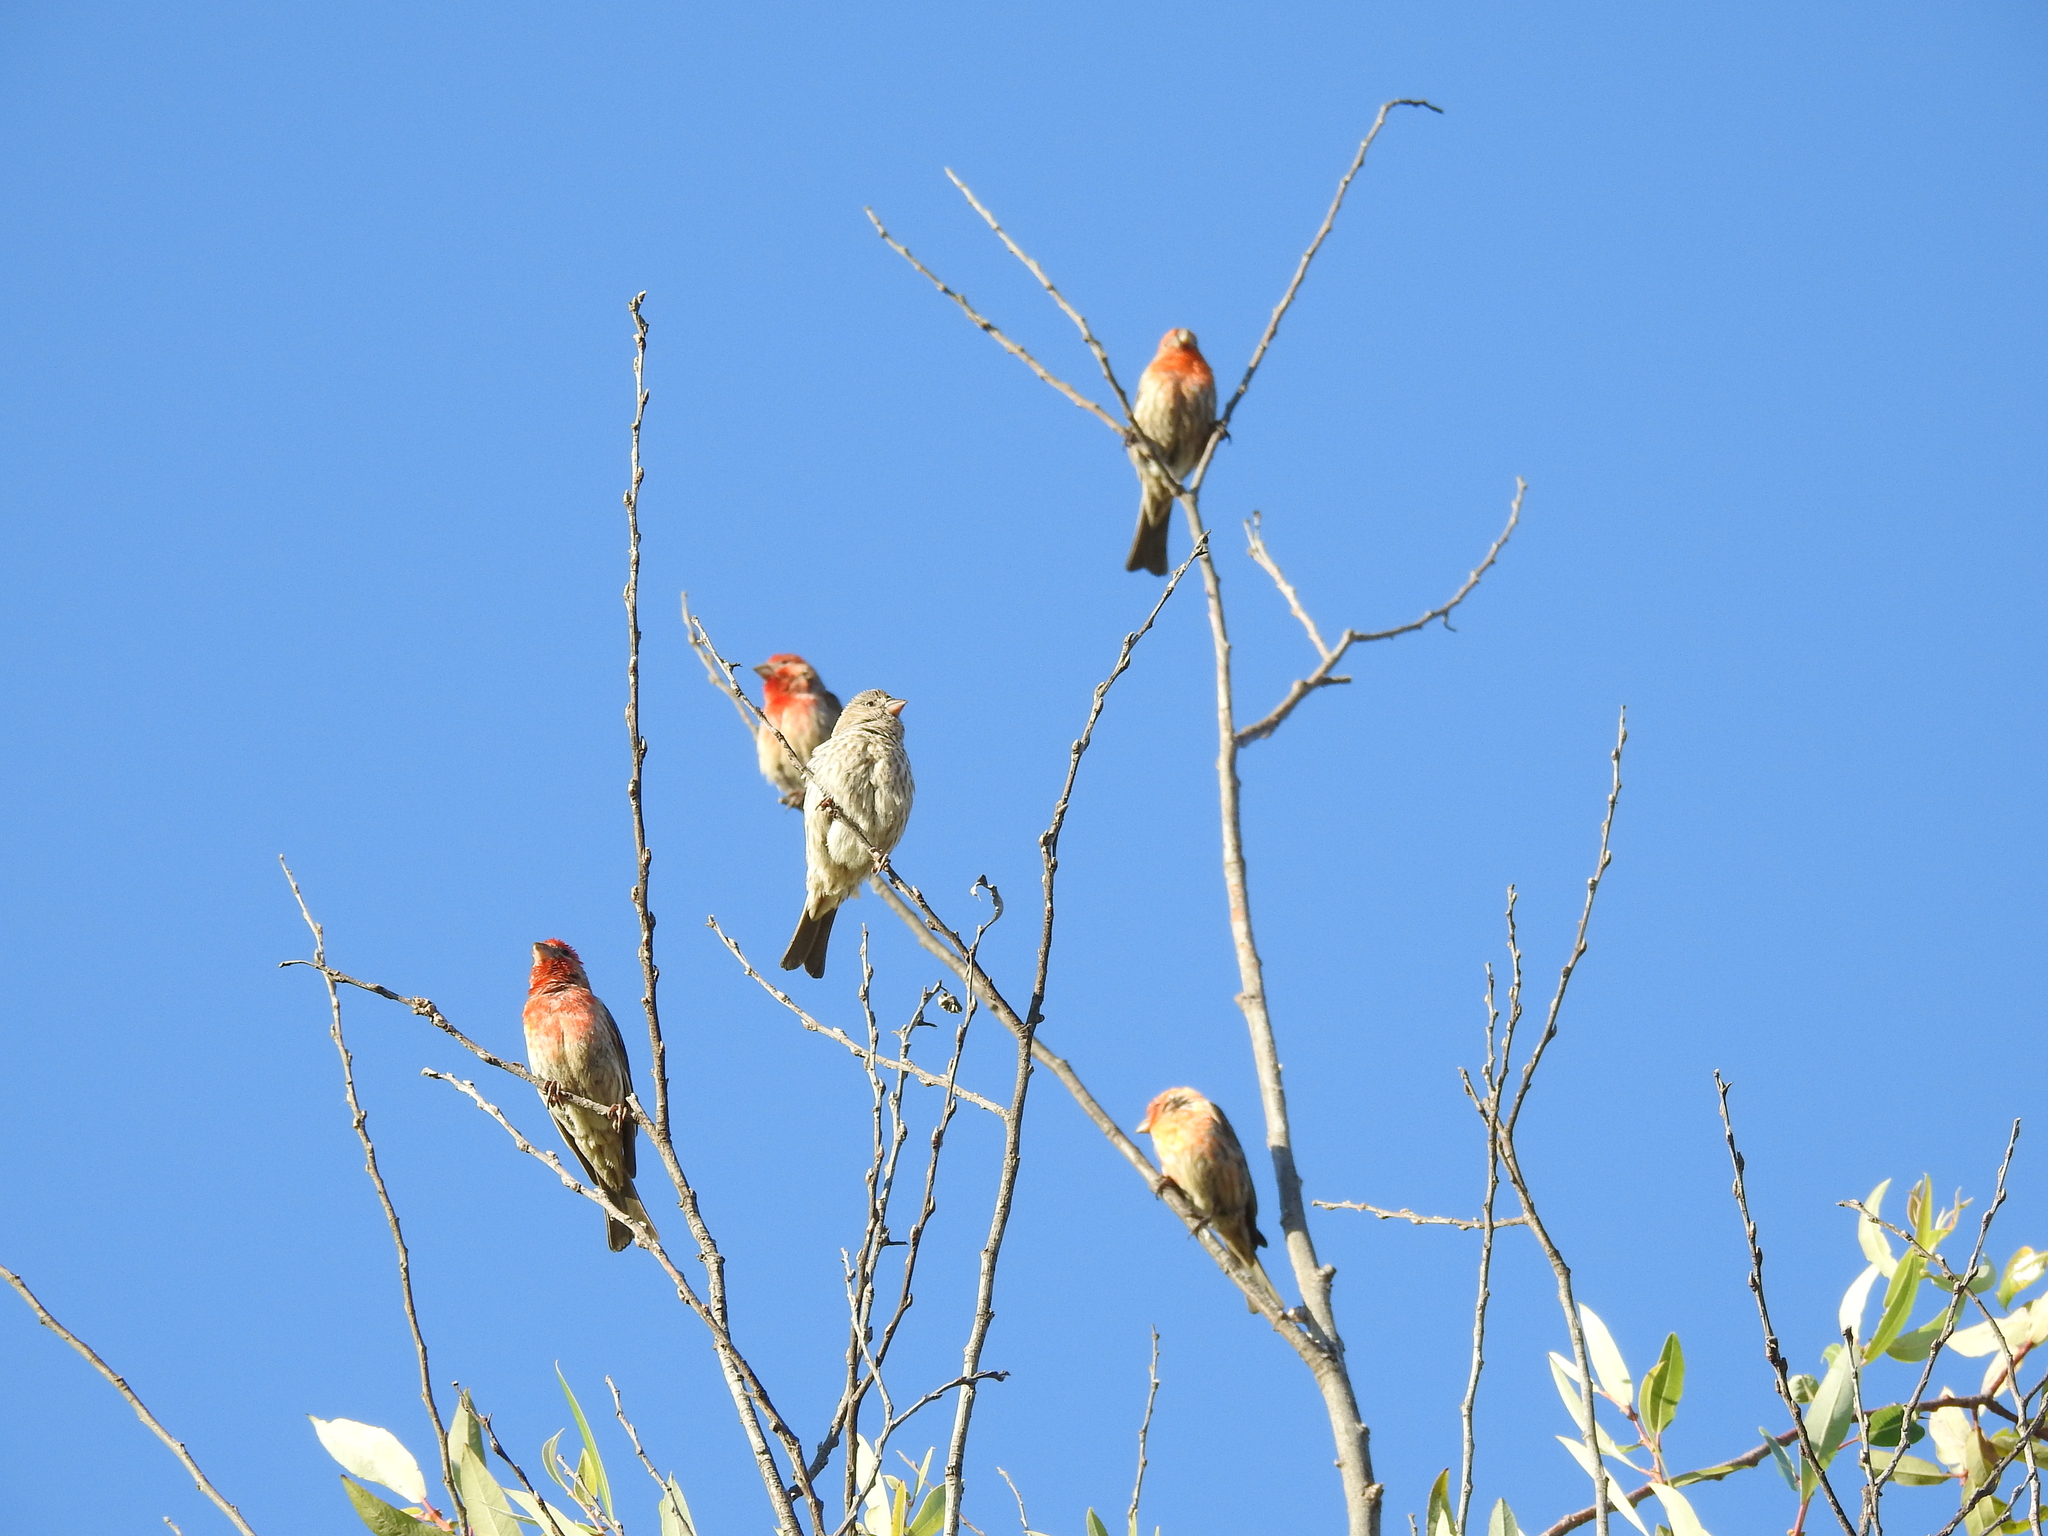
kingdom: Animalia
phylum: Chordata
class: Aves
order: Passeriformes
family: Fringillidae
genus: Haemorhous
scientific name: Haemorhous mexicanus
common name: House finch
